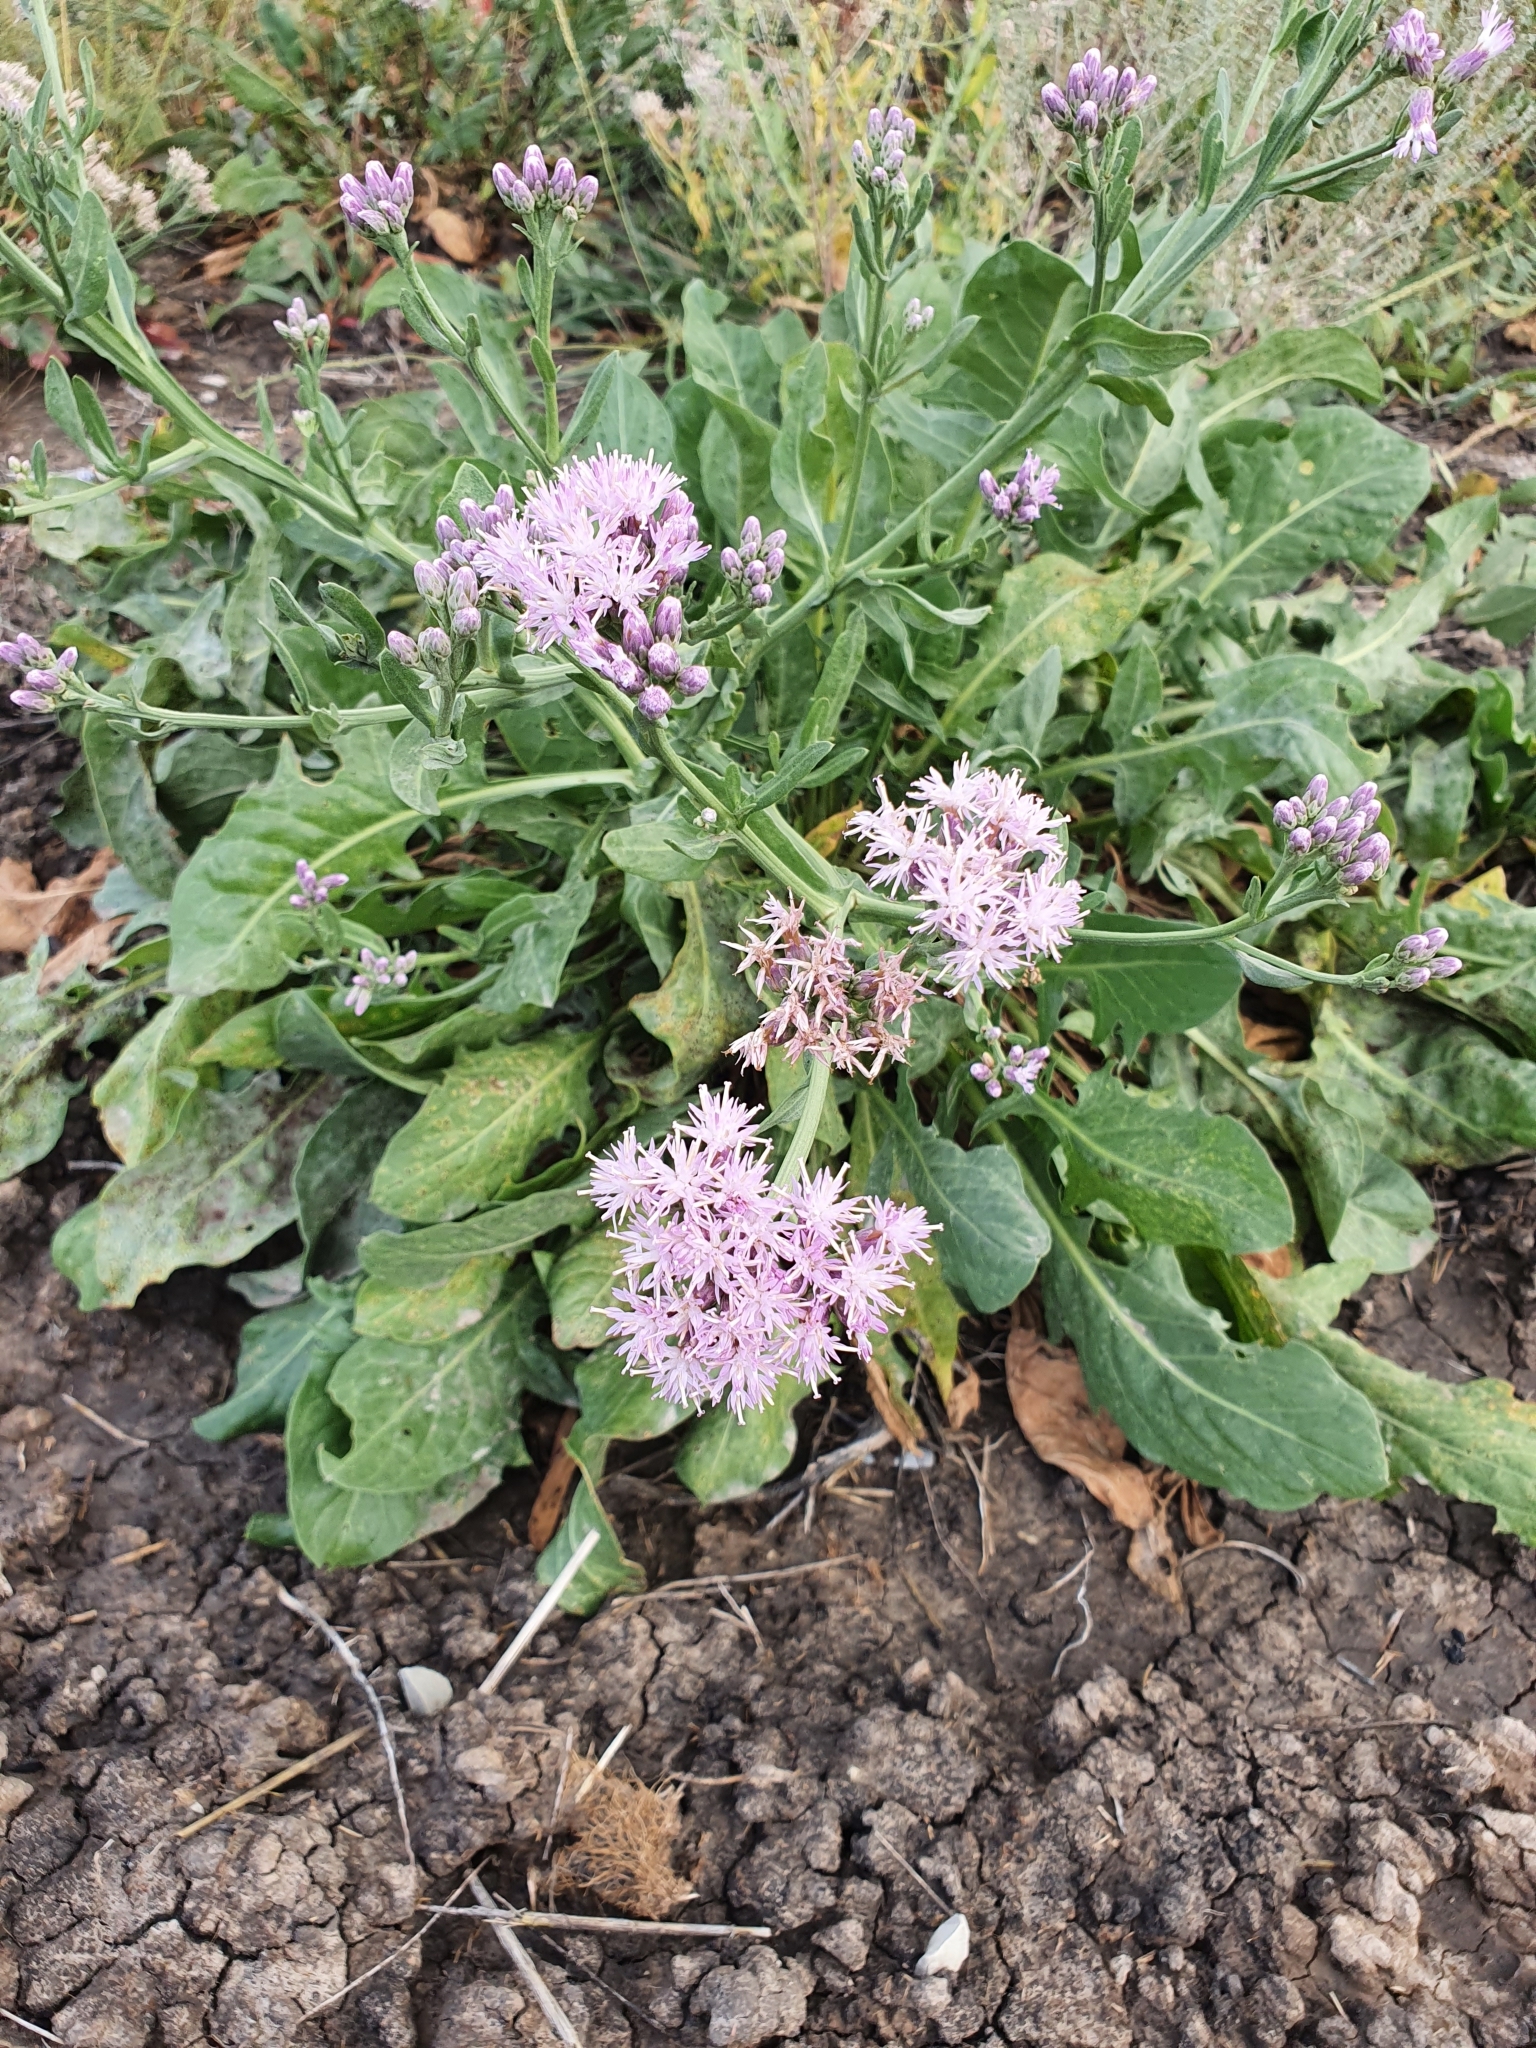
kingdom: Plantae
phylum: Tracheophyta
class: Magnoliopsida
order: Asterales
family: Asteraceae
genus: Saussurea
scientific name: Saussurea salsa
